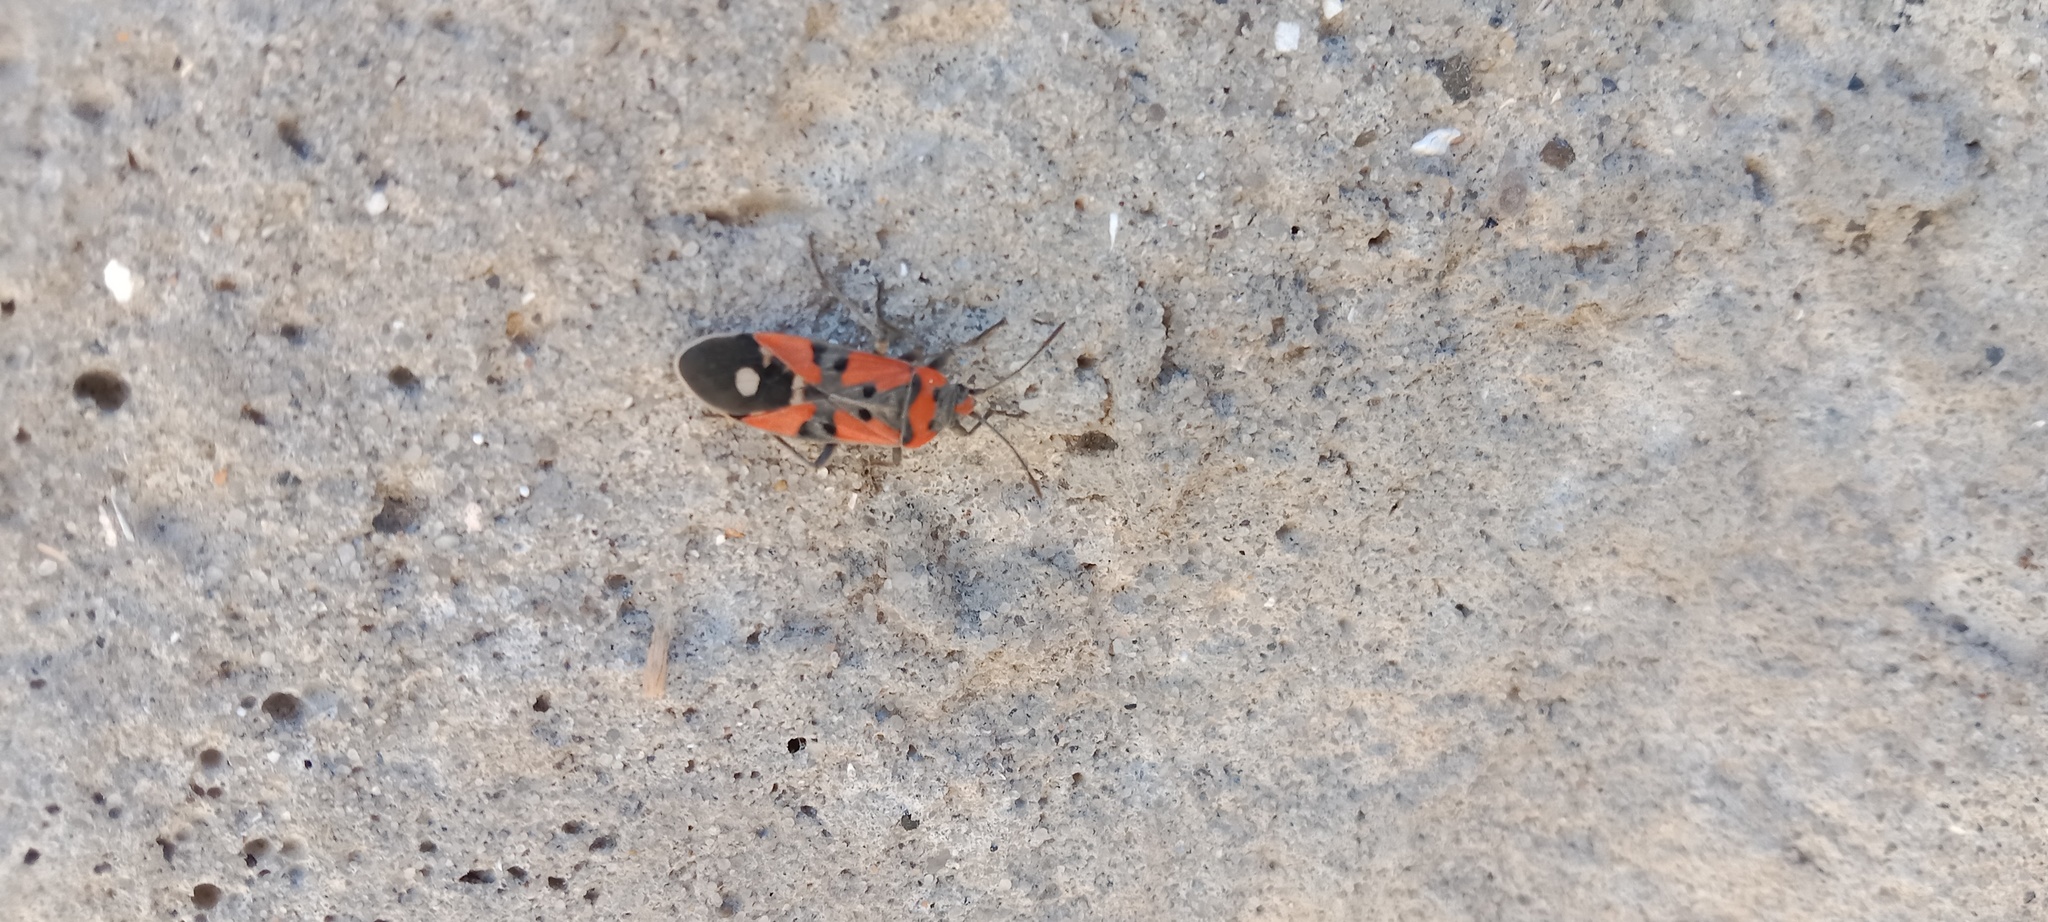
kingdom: Animalia
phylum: Arthropoda
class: Insecta
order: Hemiptera
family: Lygaeidae
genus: Lygaeus
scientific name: Lygaeus equestris
